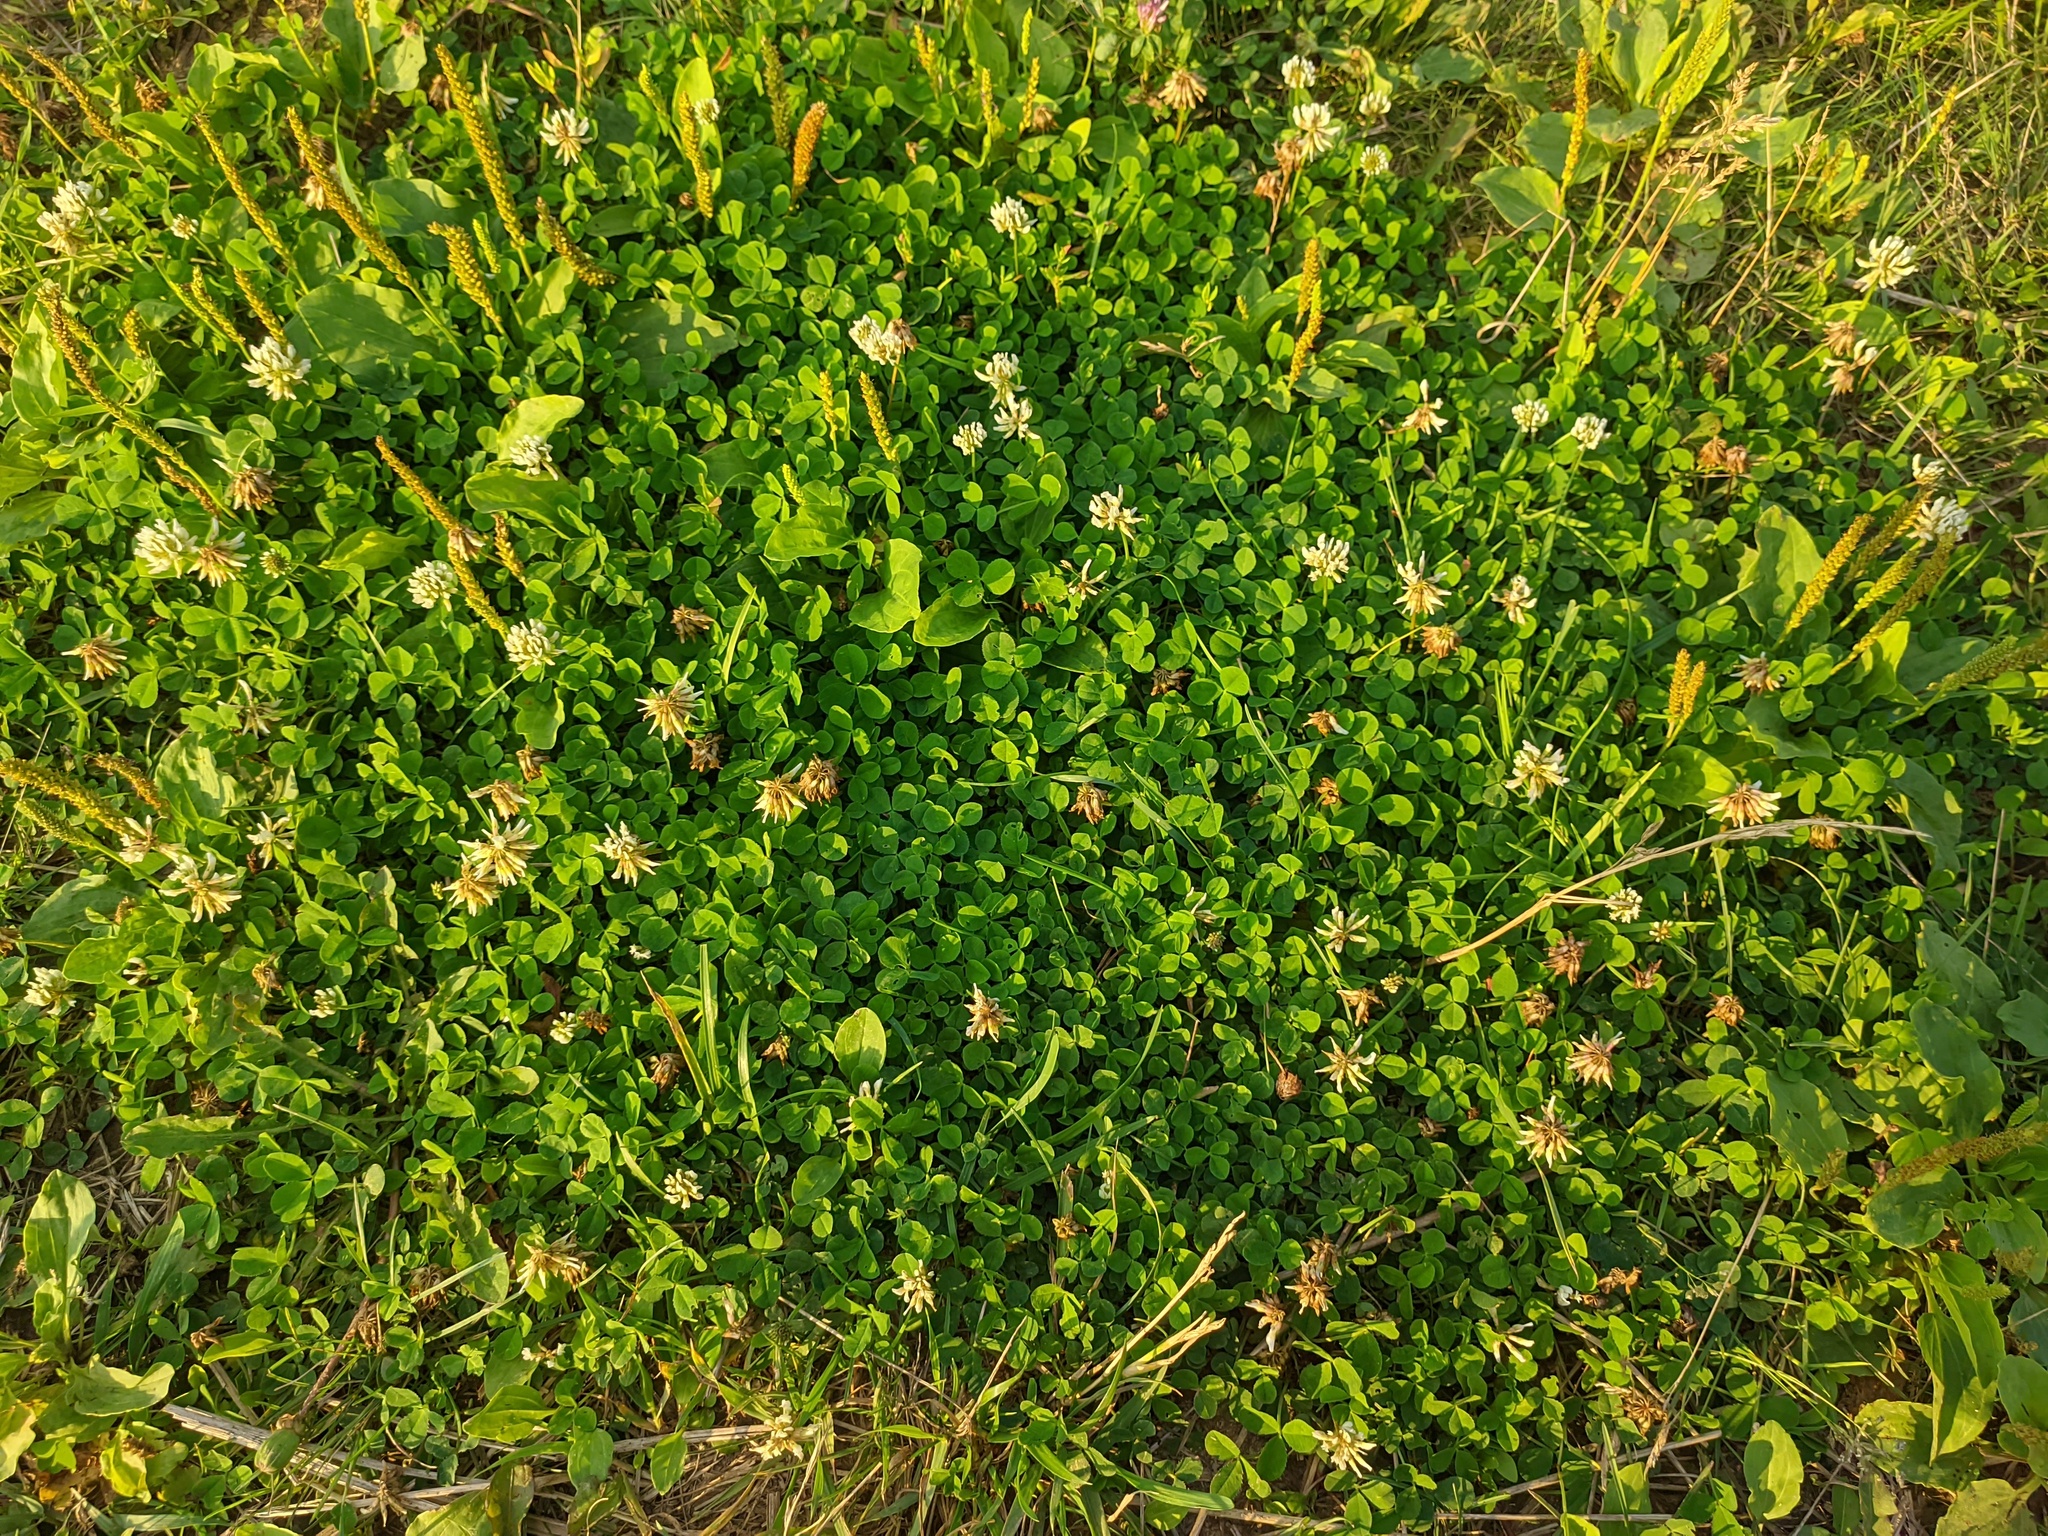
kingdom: Plantae
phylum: Tracheophyta
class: Magnoliopsida
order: Fabales
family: Fabaceae
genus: Trifolium
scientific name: Trifolium repens
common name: White clover
